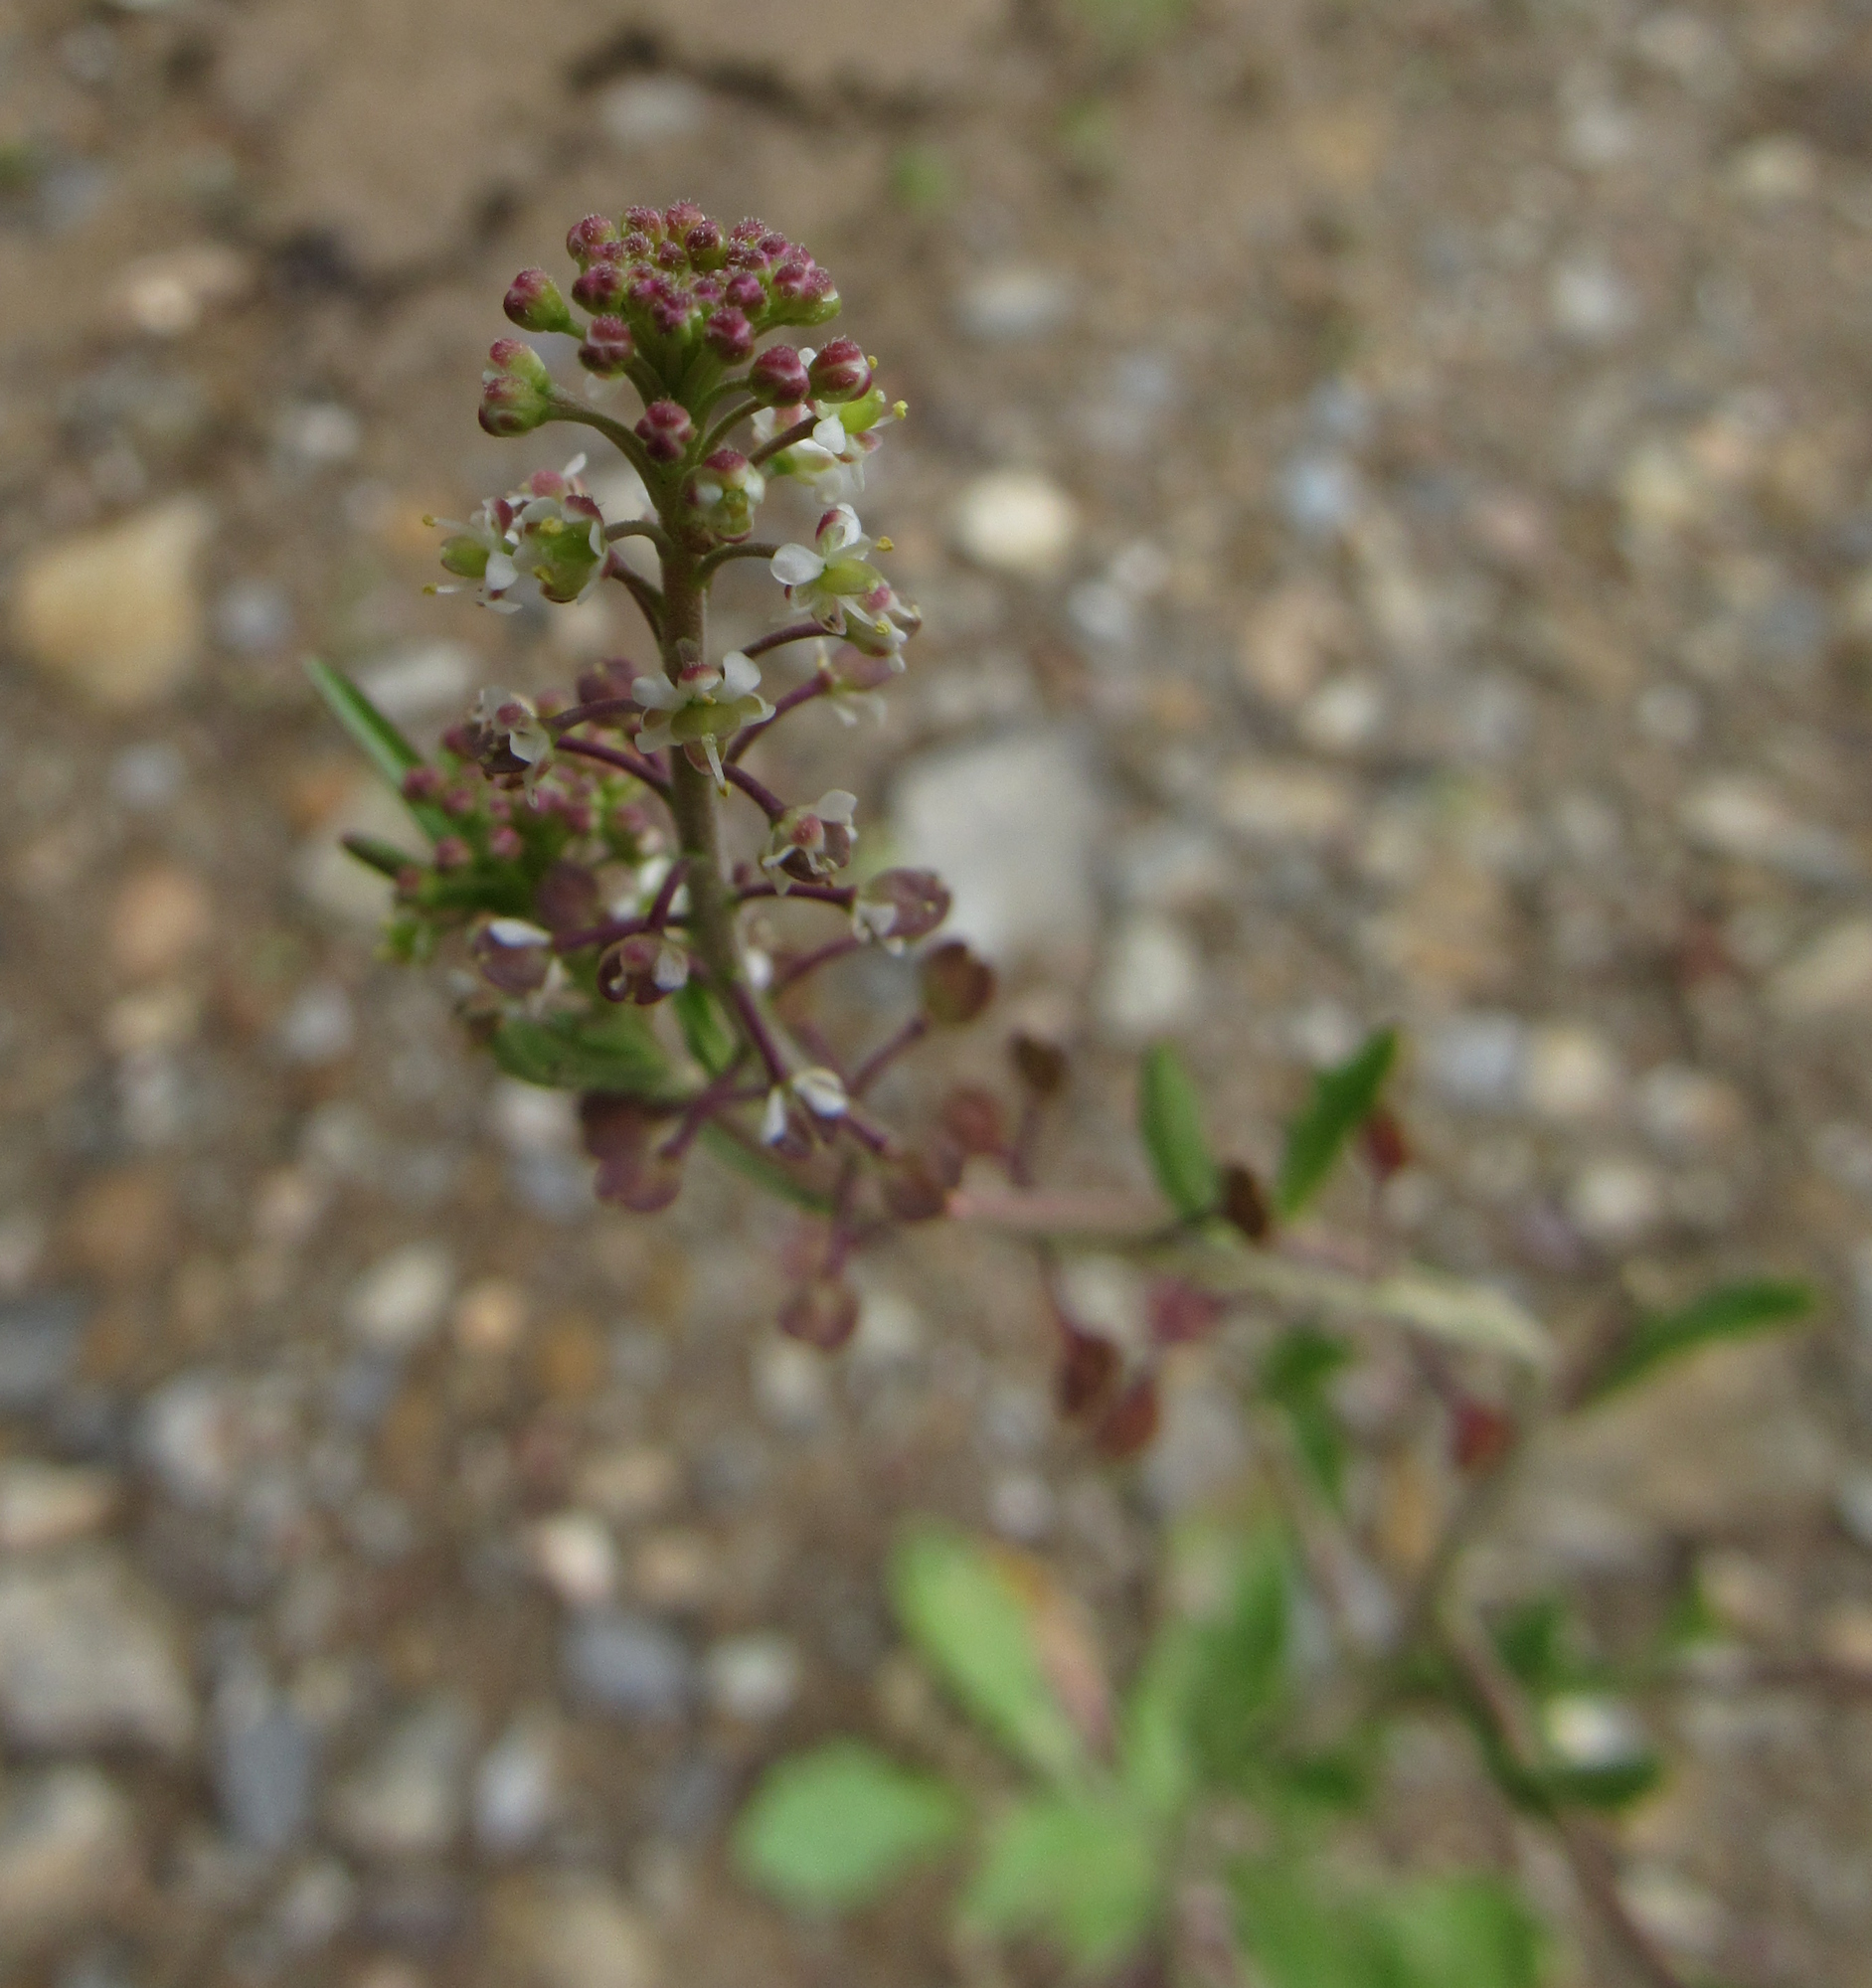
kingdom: Plantae
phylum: Tracheophyta
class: Magnoliopsida
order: Brassicales
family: Brassicaceae
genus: Lepidium
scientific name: Lepidium virginicum
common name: Least pepperwort
